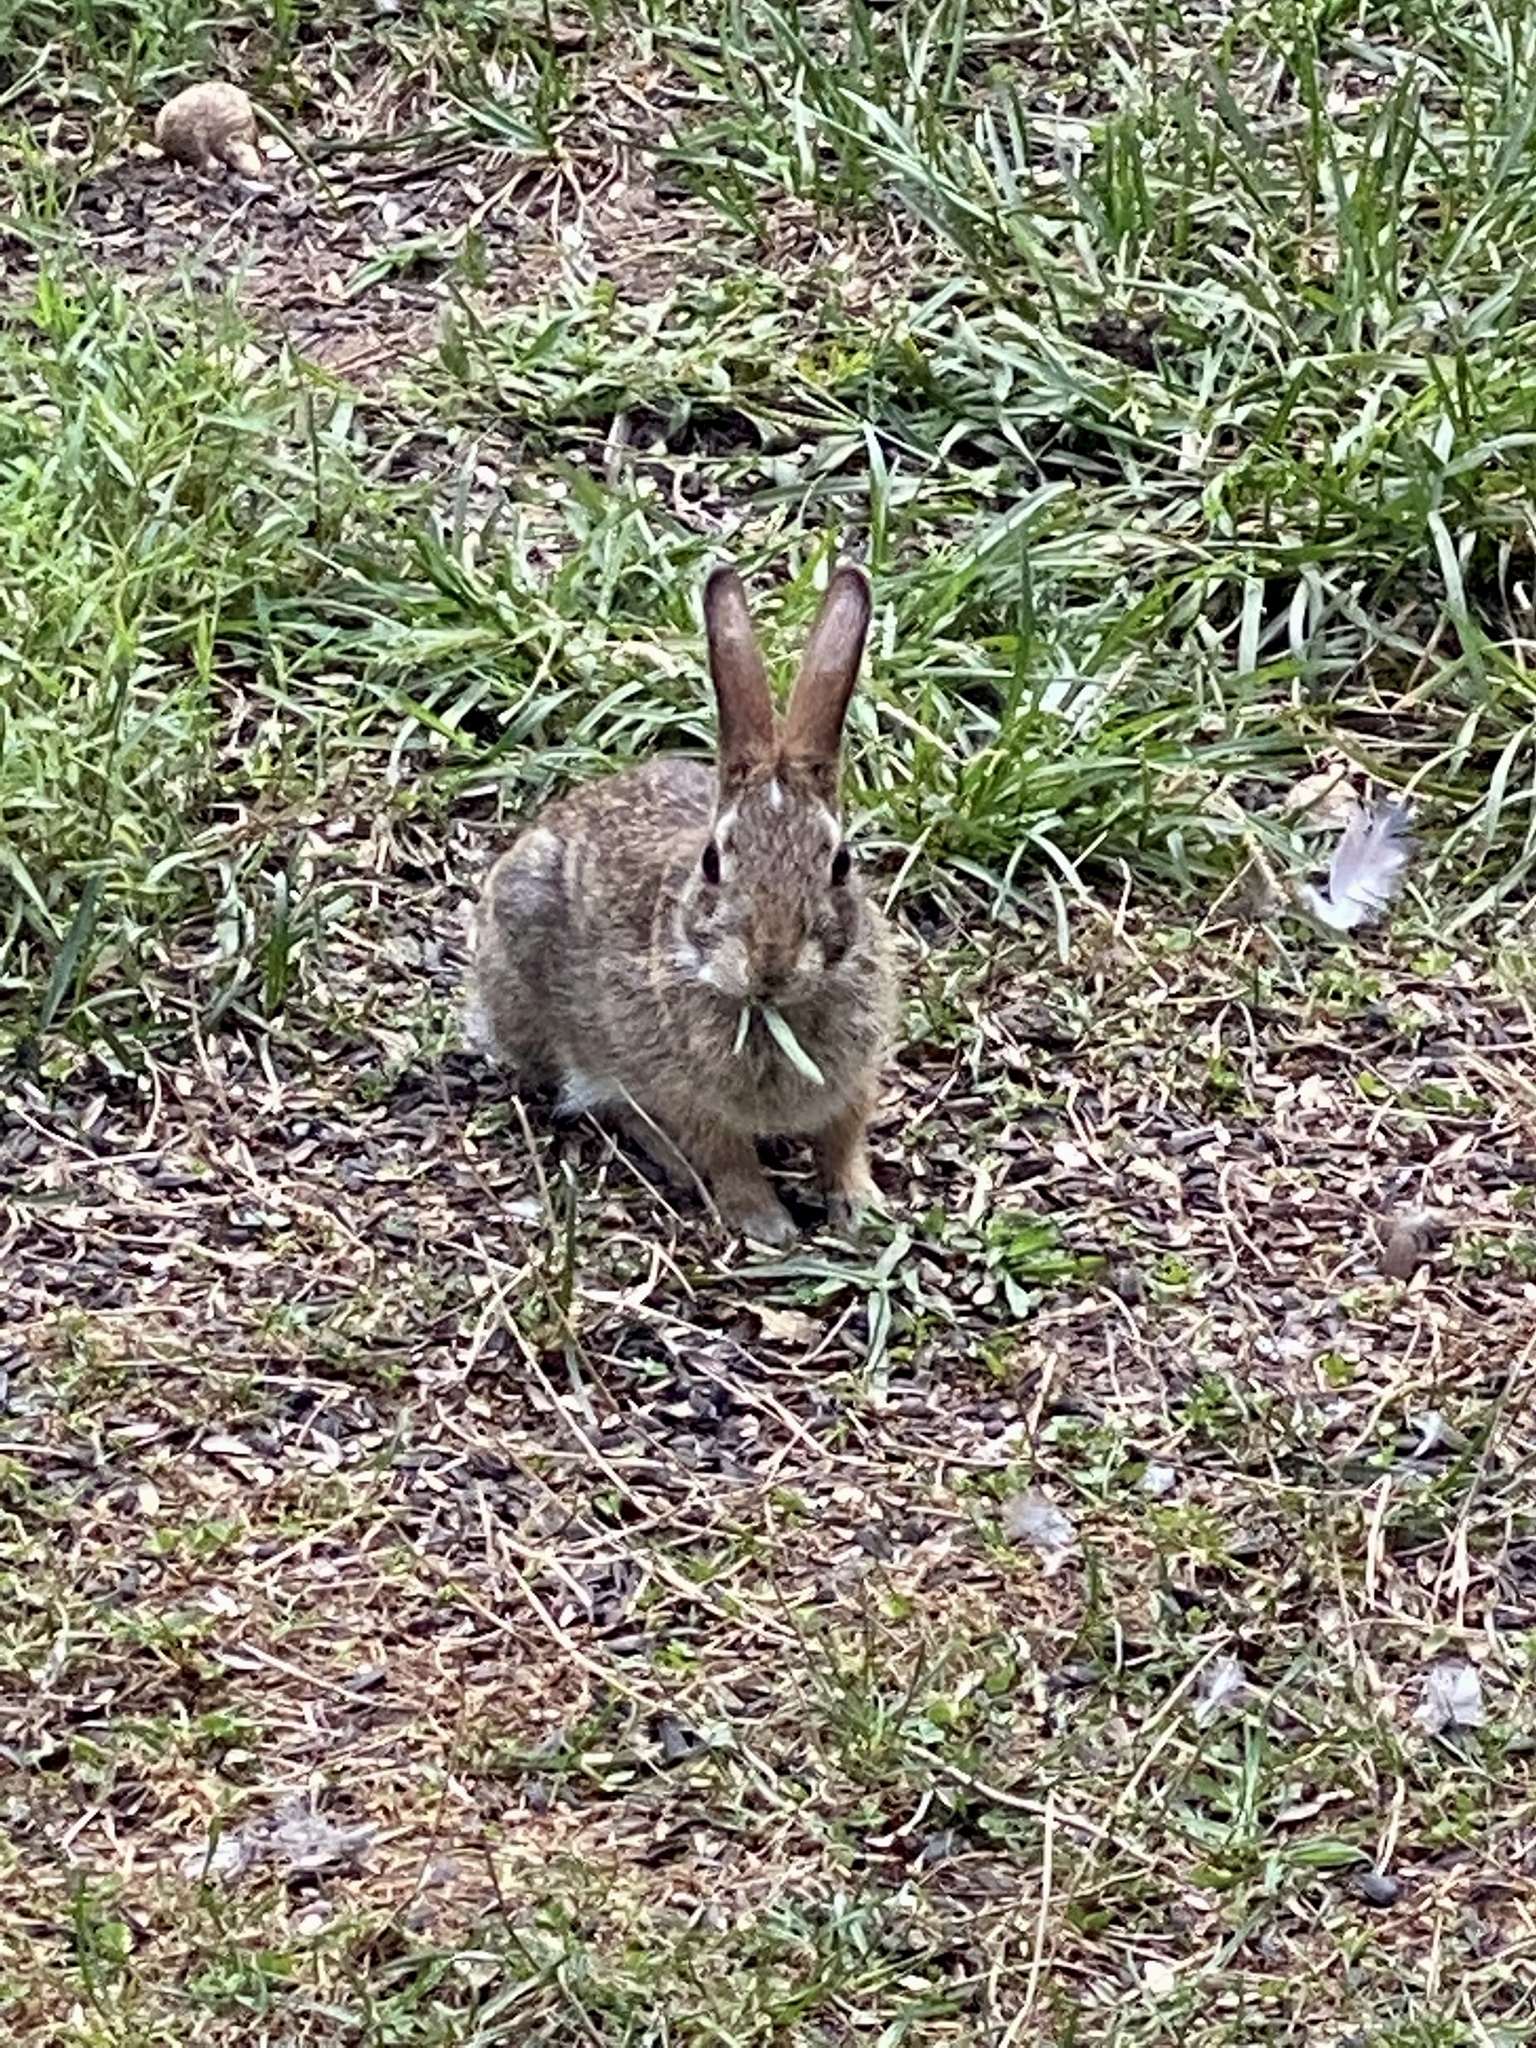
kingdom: Animalia
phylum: Chordata
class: Mammalia
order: Lagomorpha
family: Leporidae
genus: Sylvilagus
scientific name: Sylvilagus floridanus
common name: Eastern cottontail
